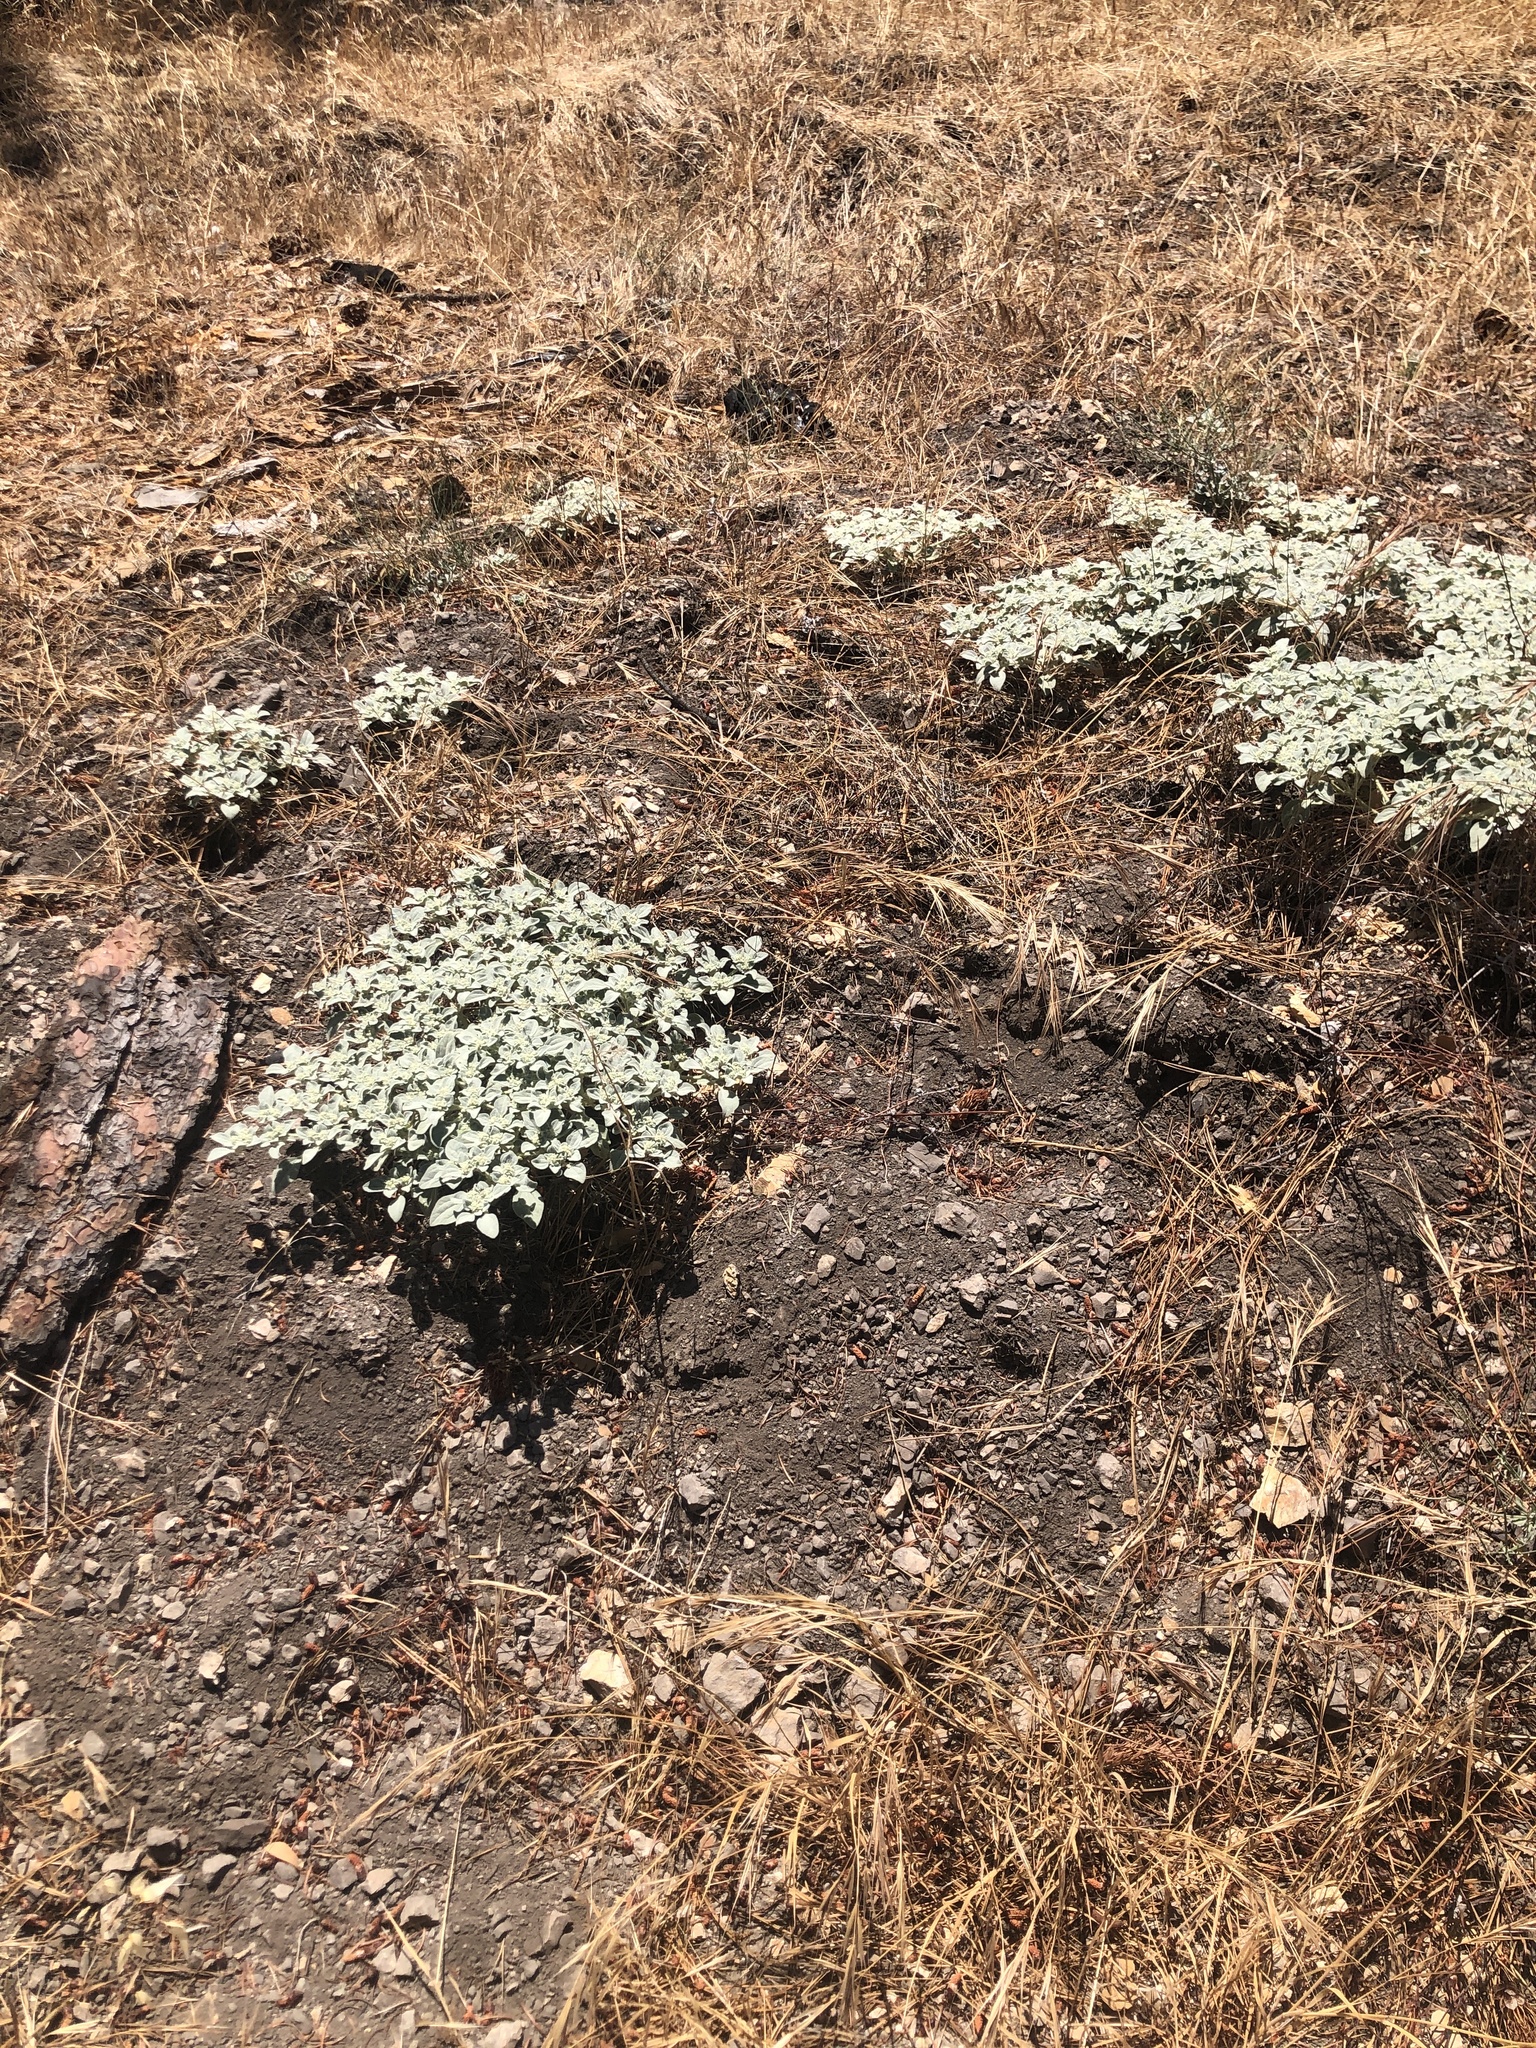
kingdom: Plantae
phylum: Tracheophyta
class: Magnoliopsida
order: Malpighiales
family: Euphorbiaceae
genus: Croton
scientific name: Croton setiger
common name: Dove weed
